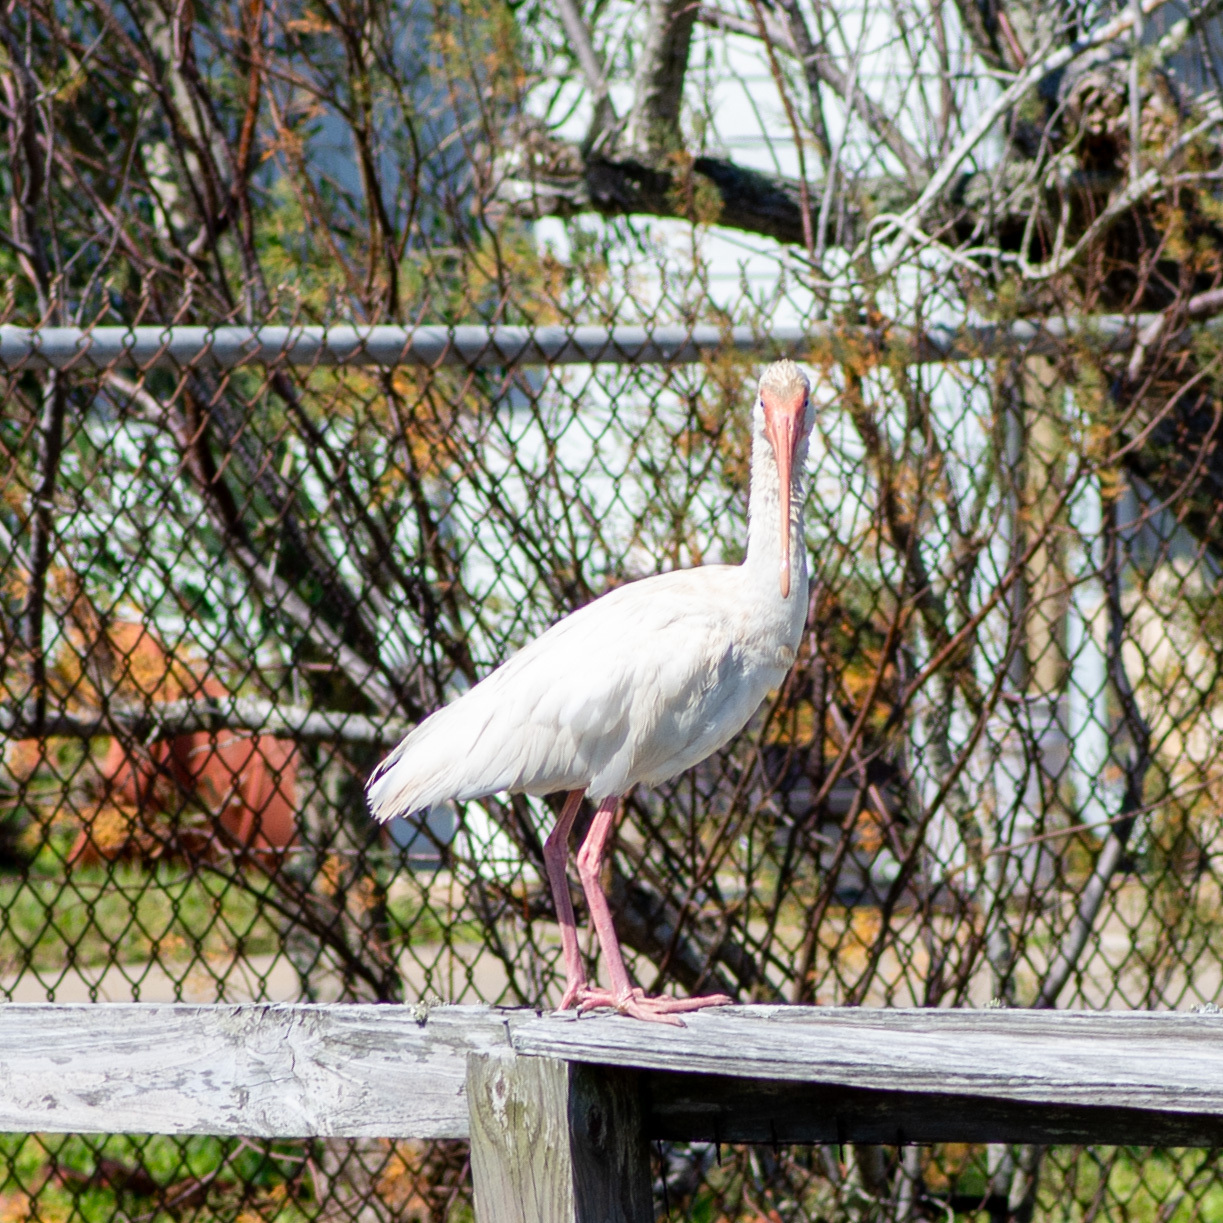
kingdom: Animalia
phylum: Chordata
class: Aves
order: Pelecaniformes
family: Threskiornithidae
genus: Eudocimus
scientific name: Eudocimus albus
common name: White ibis
